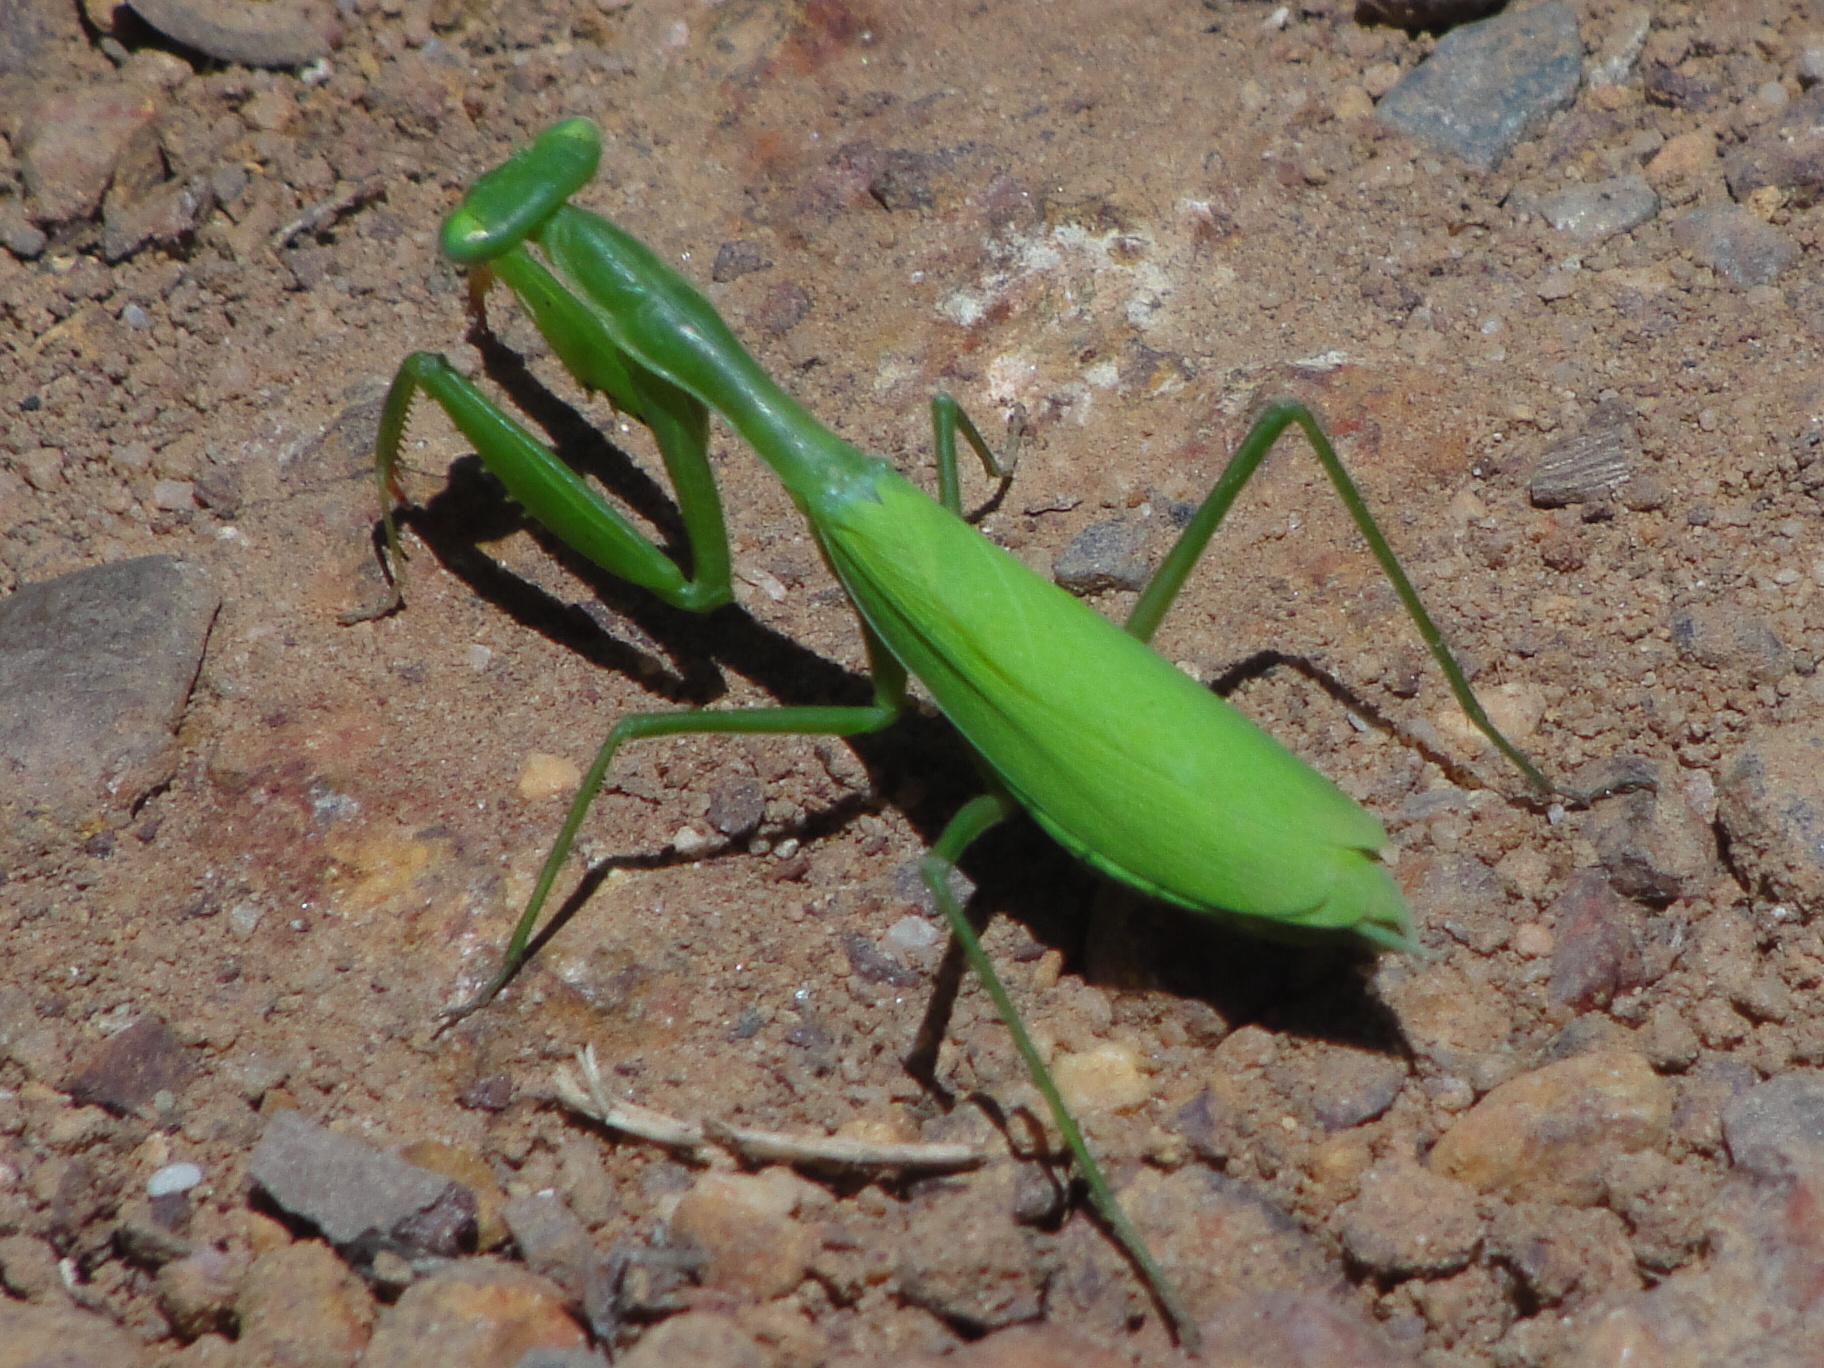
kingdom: Animalia
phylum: Arthropoda
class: Insecta
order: Mantodea
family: Miomantidae
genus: Miomantis
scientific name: Miomantis caffra
